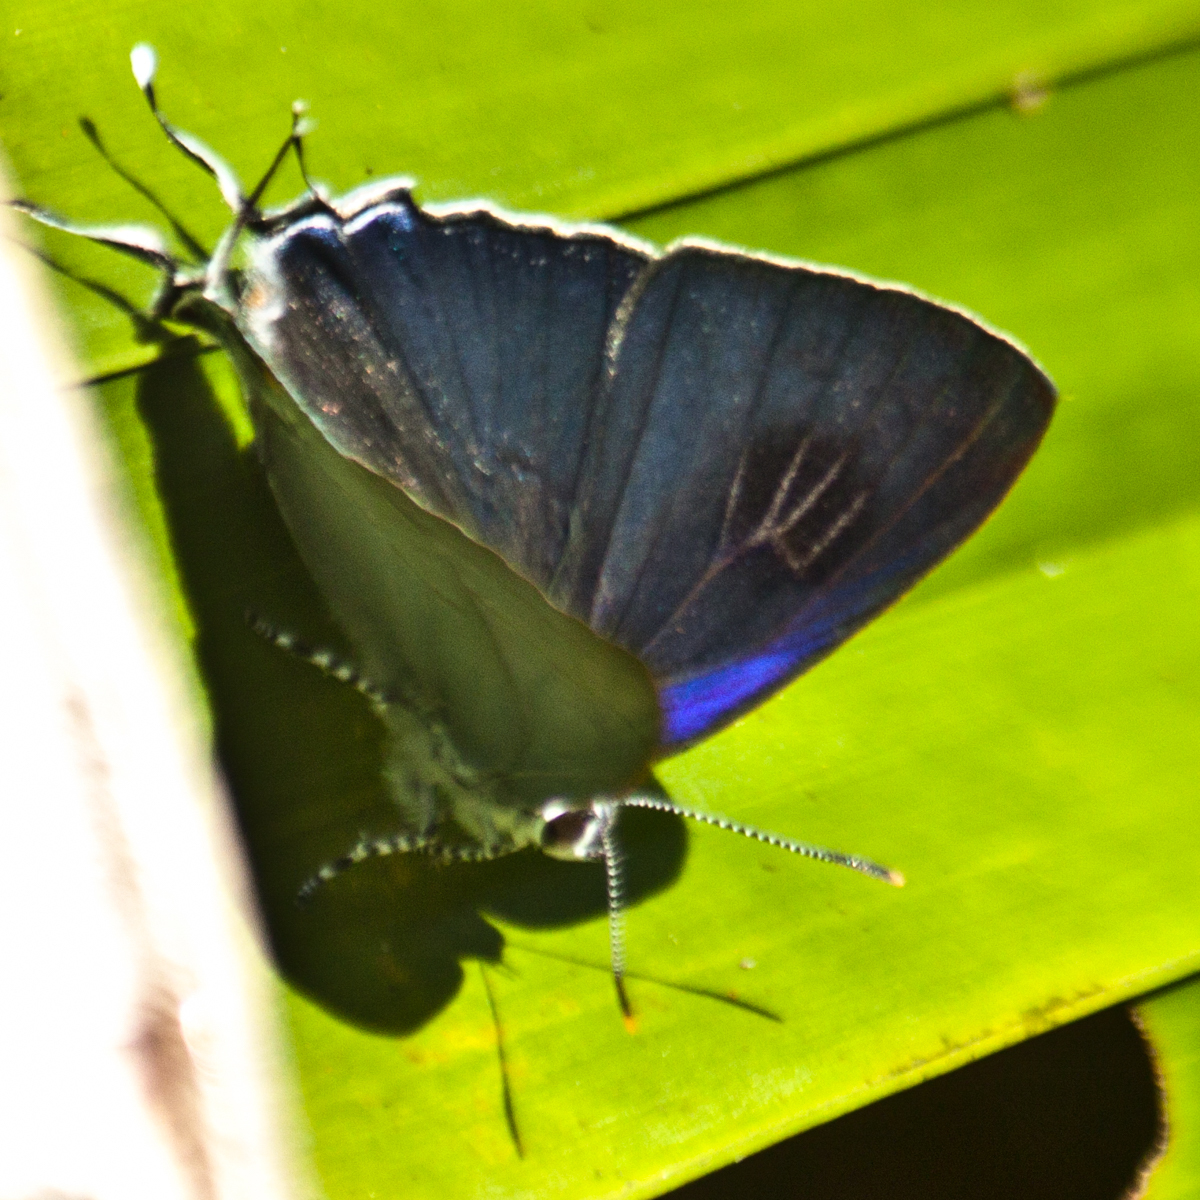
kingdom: Animalia
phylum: Arthropoda
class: Insecta
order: Lepidoptera
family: Lycaenidae
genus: Hypolycaena
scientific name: Hypolycaena erylus
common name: Common tit
